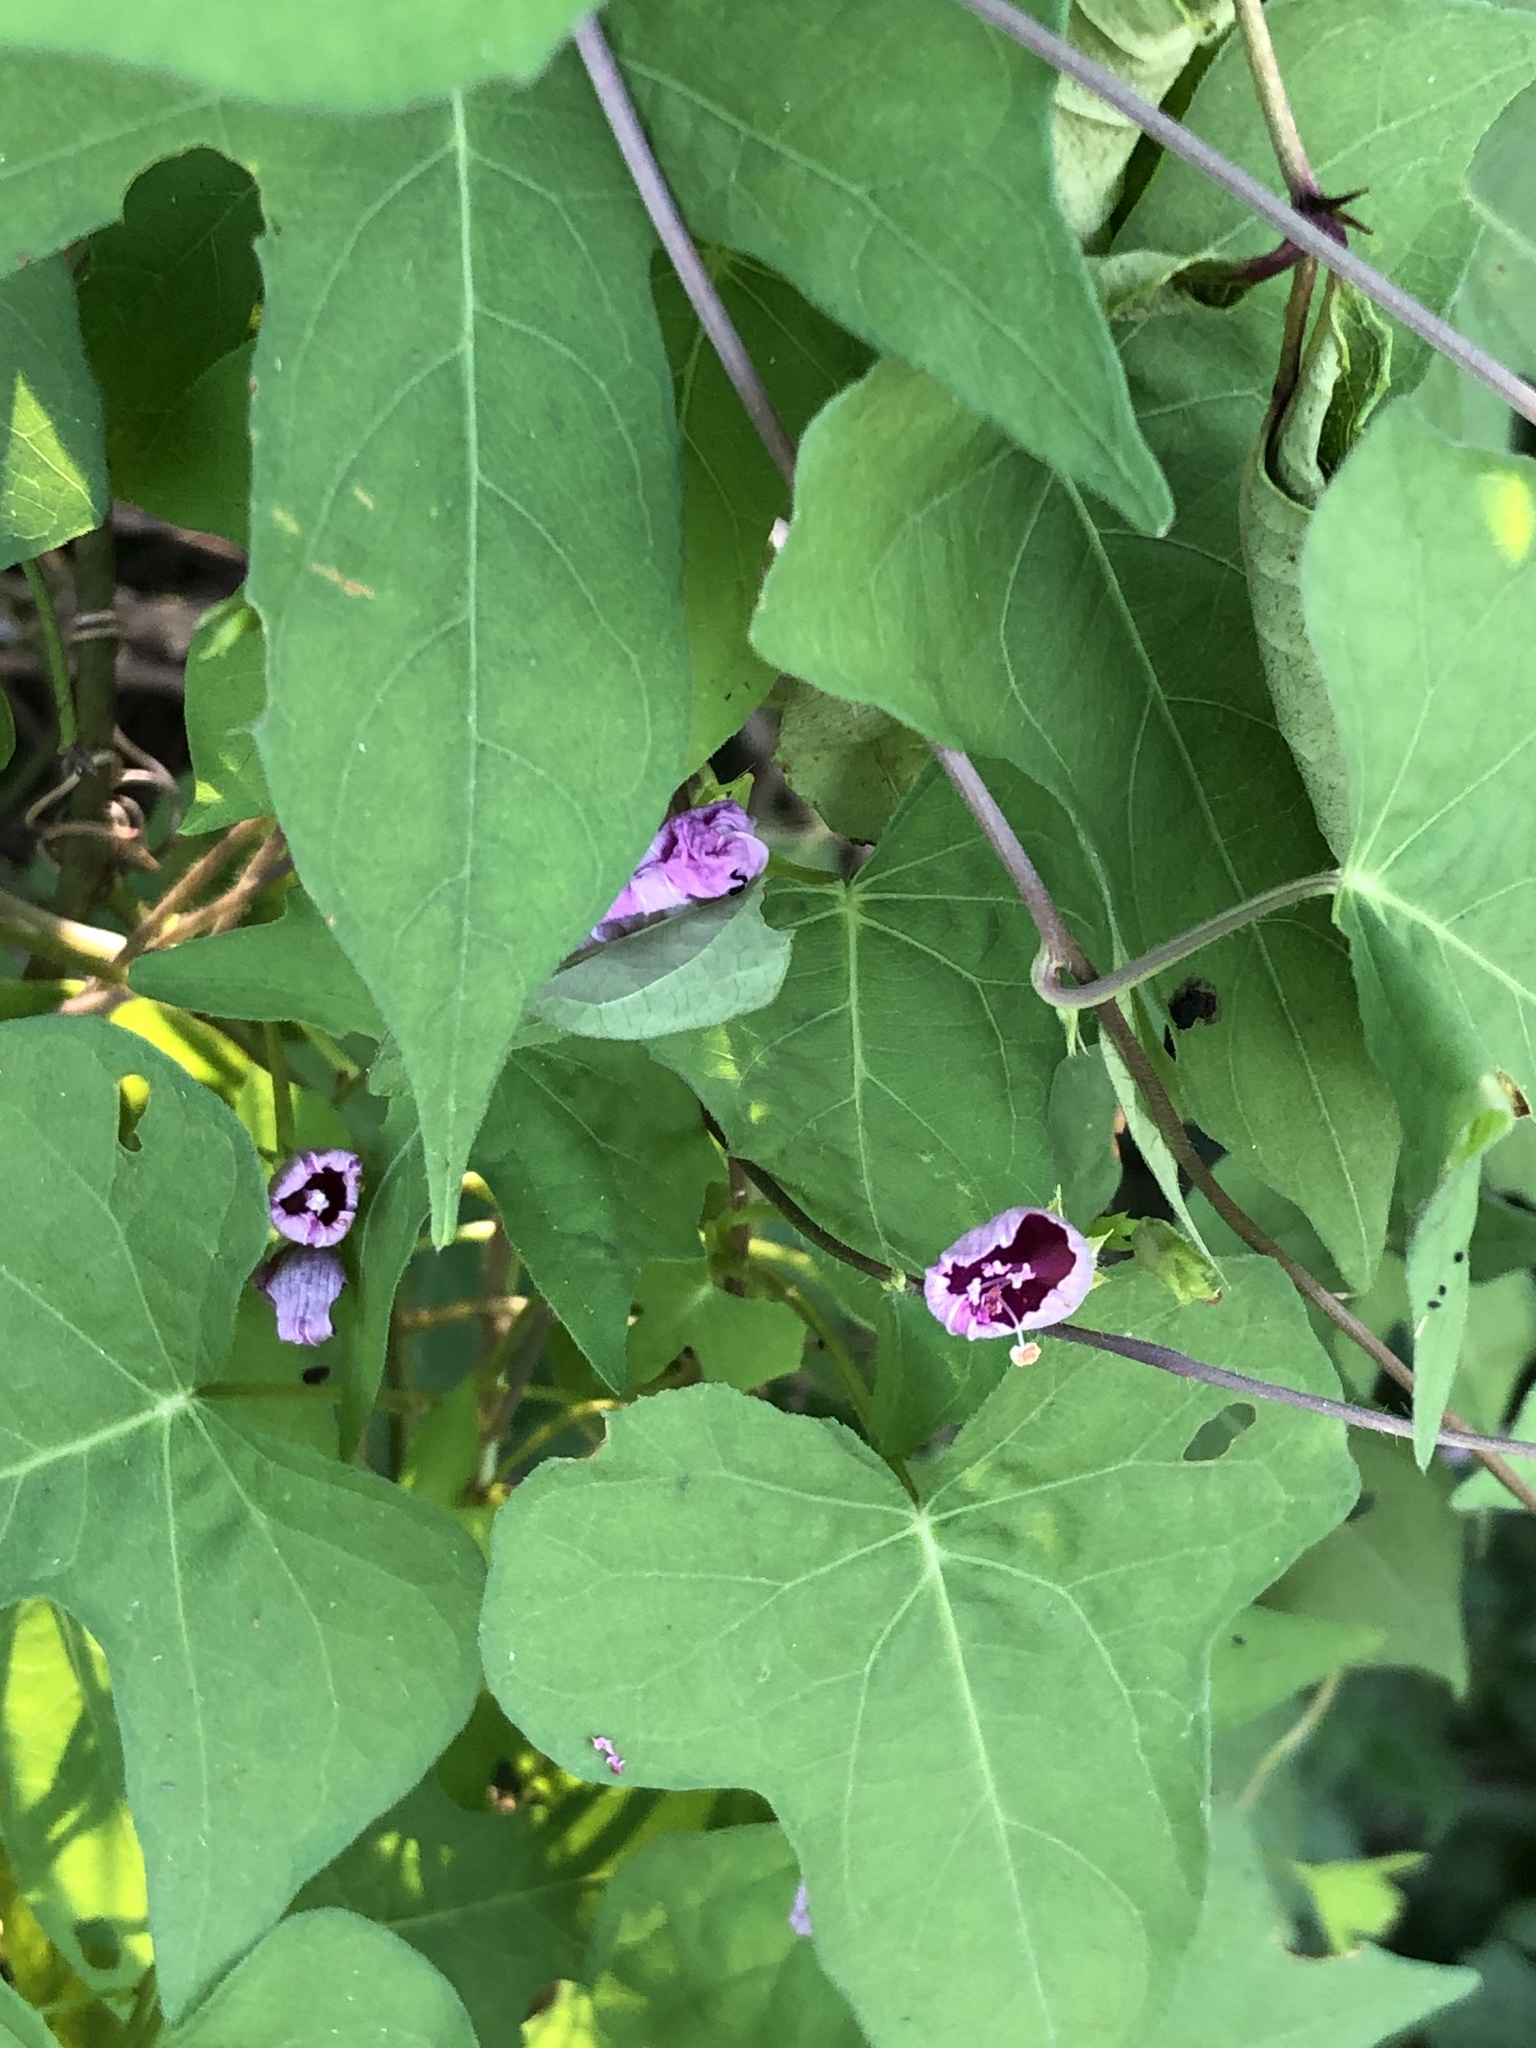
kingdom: Plantae
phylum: Tracheophyta
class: Magnoliopsida
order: Solanales
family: Convolvulaceae
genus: Ipomoea
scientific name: Ipomoea cordatotriloba
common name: Cotton morning glory
